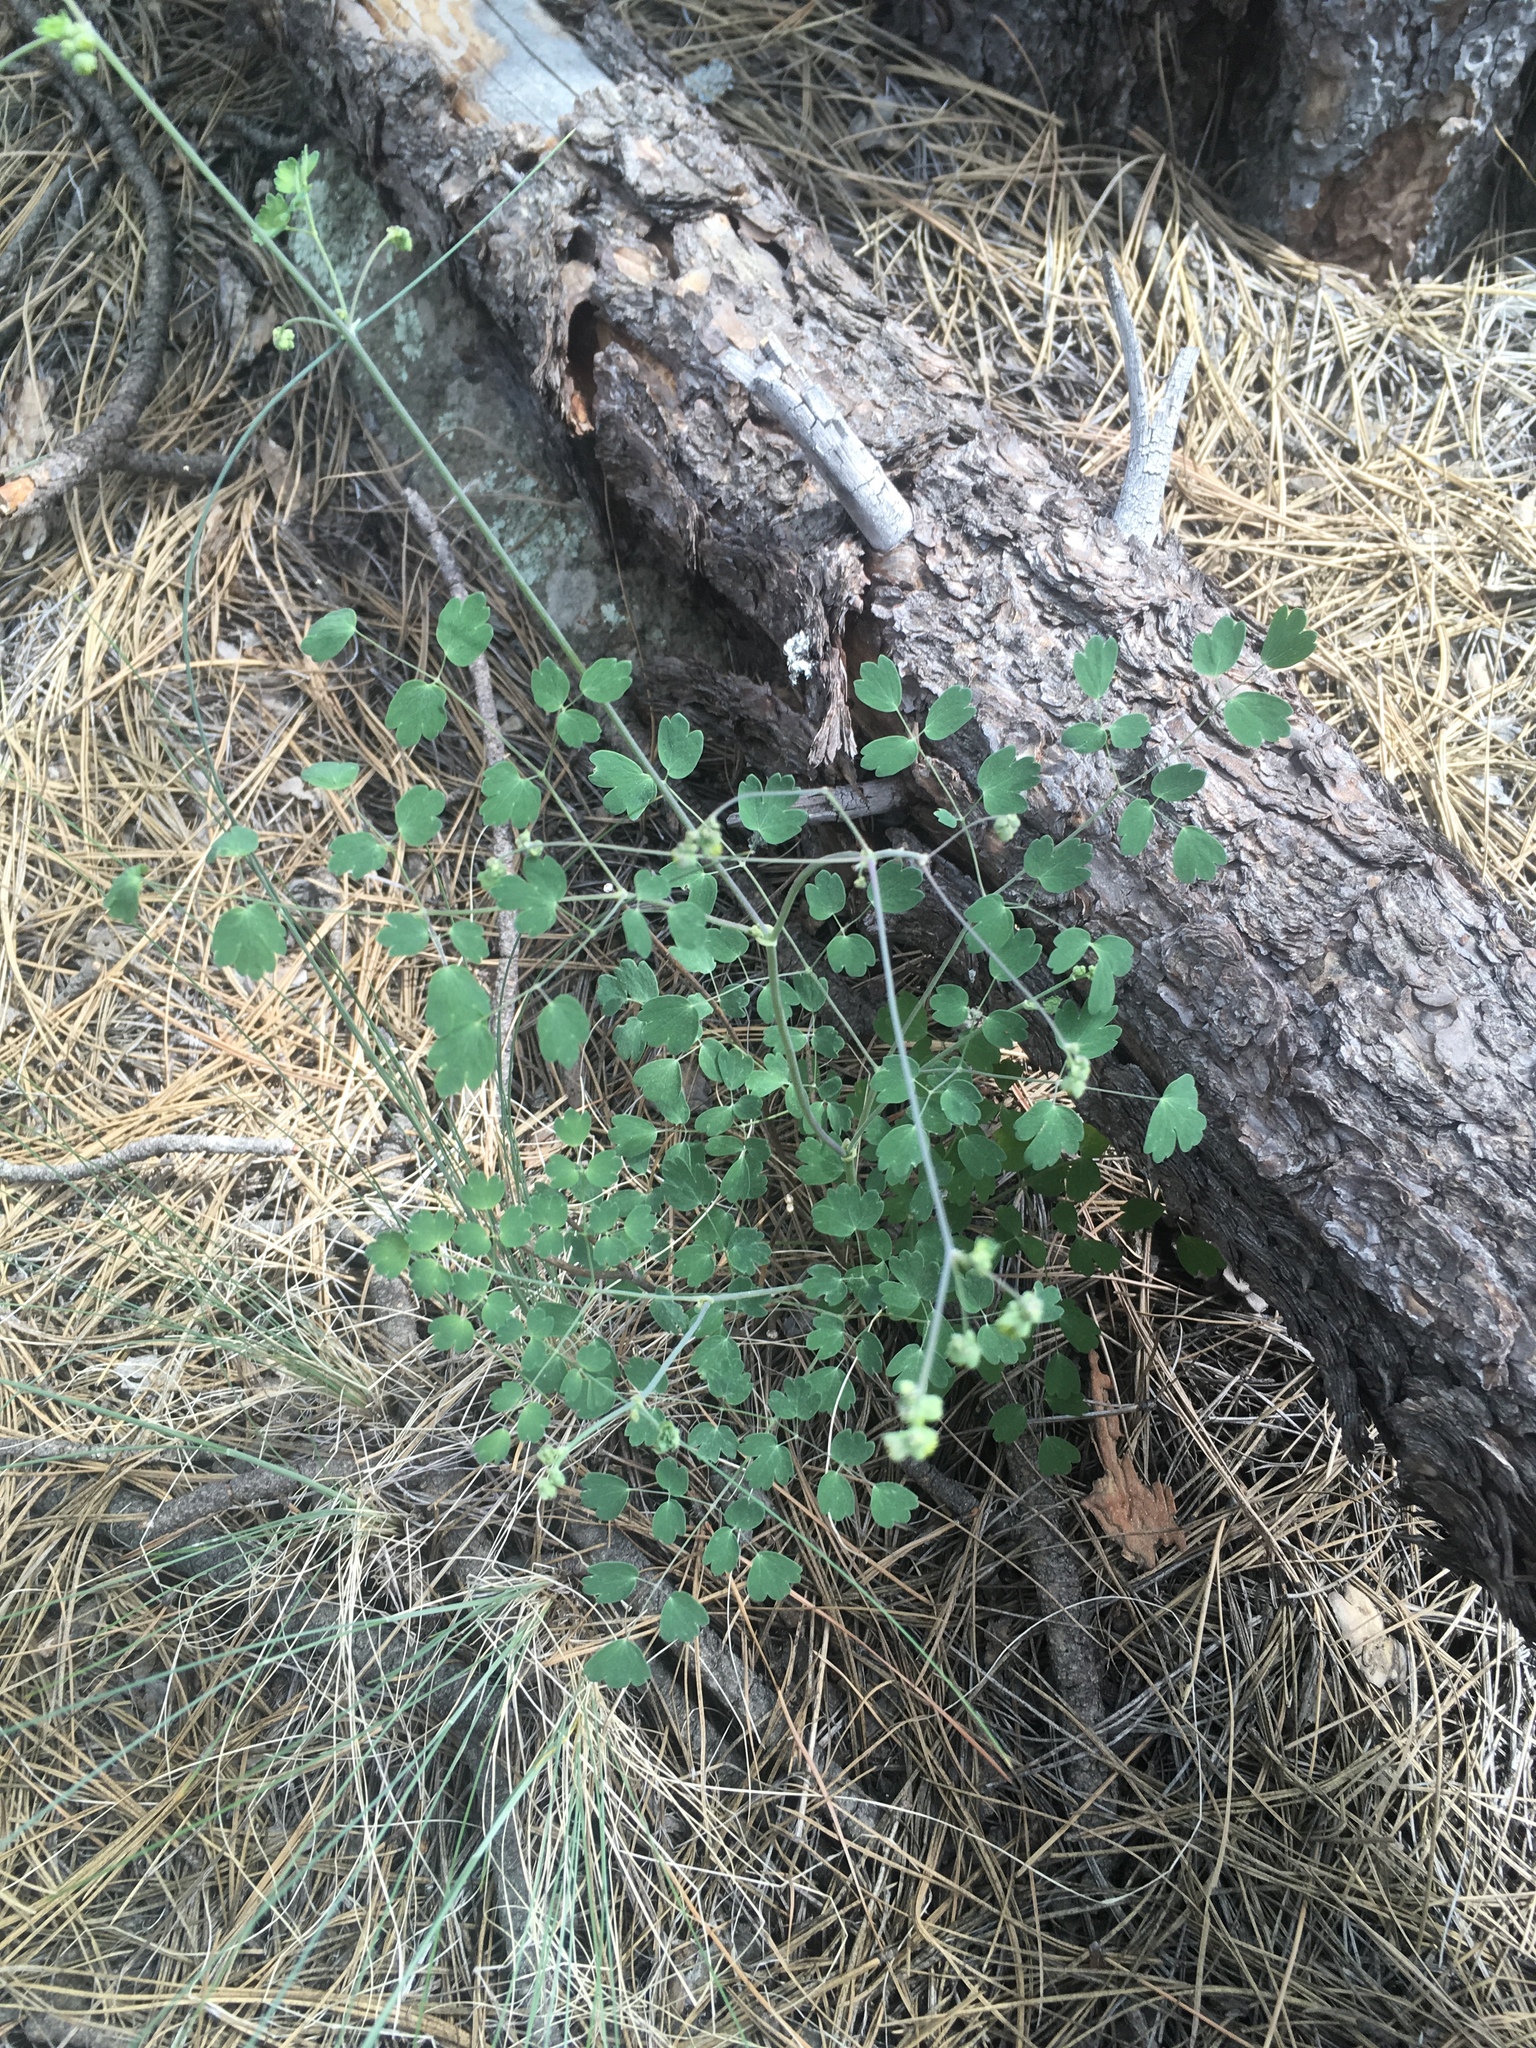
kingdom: Plantae
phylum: Tracheophyta
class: Magnoliopsida
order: Ranunculales
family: Ranunculaceae
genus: Thalictrum
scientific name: Thalictrum fendleri
